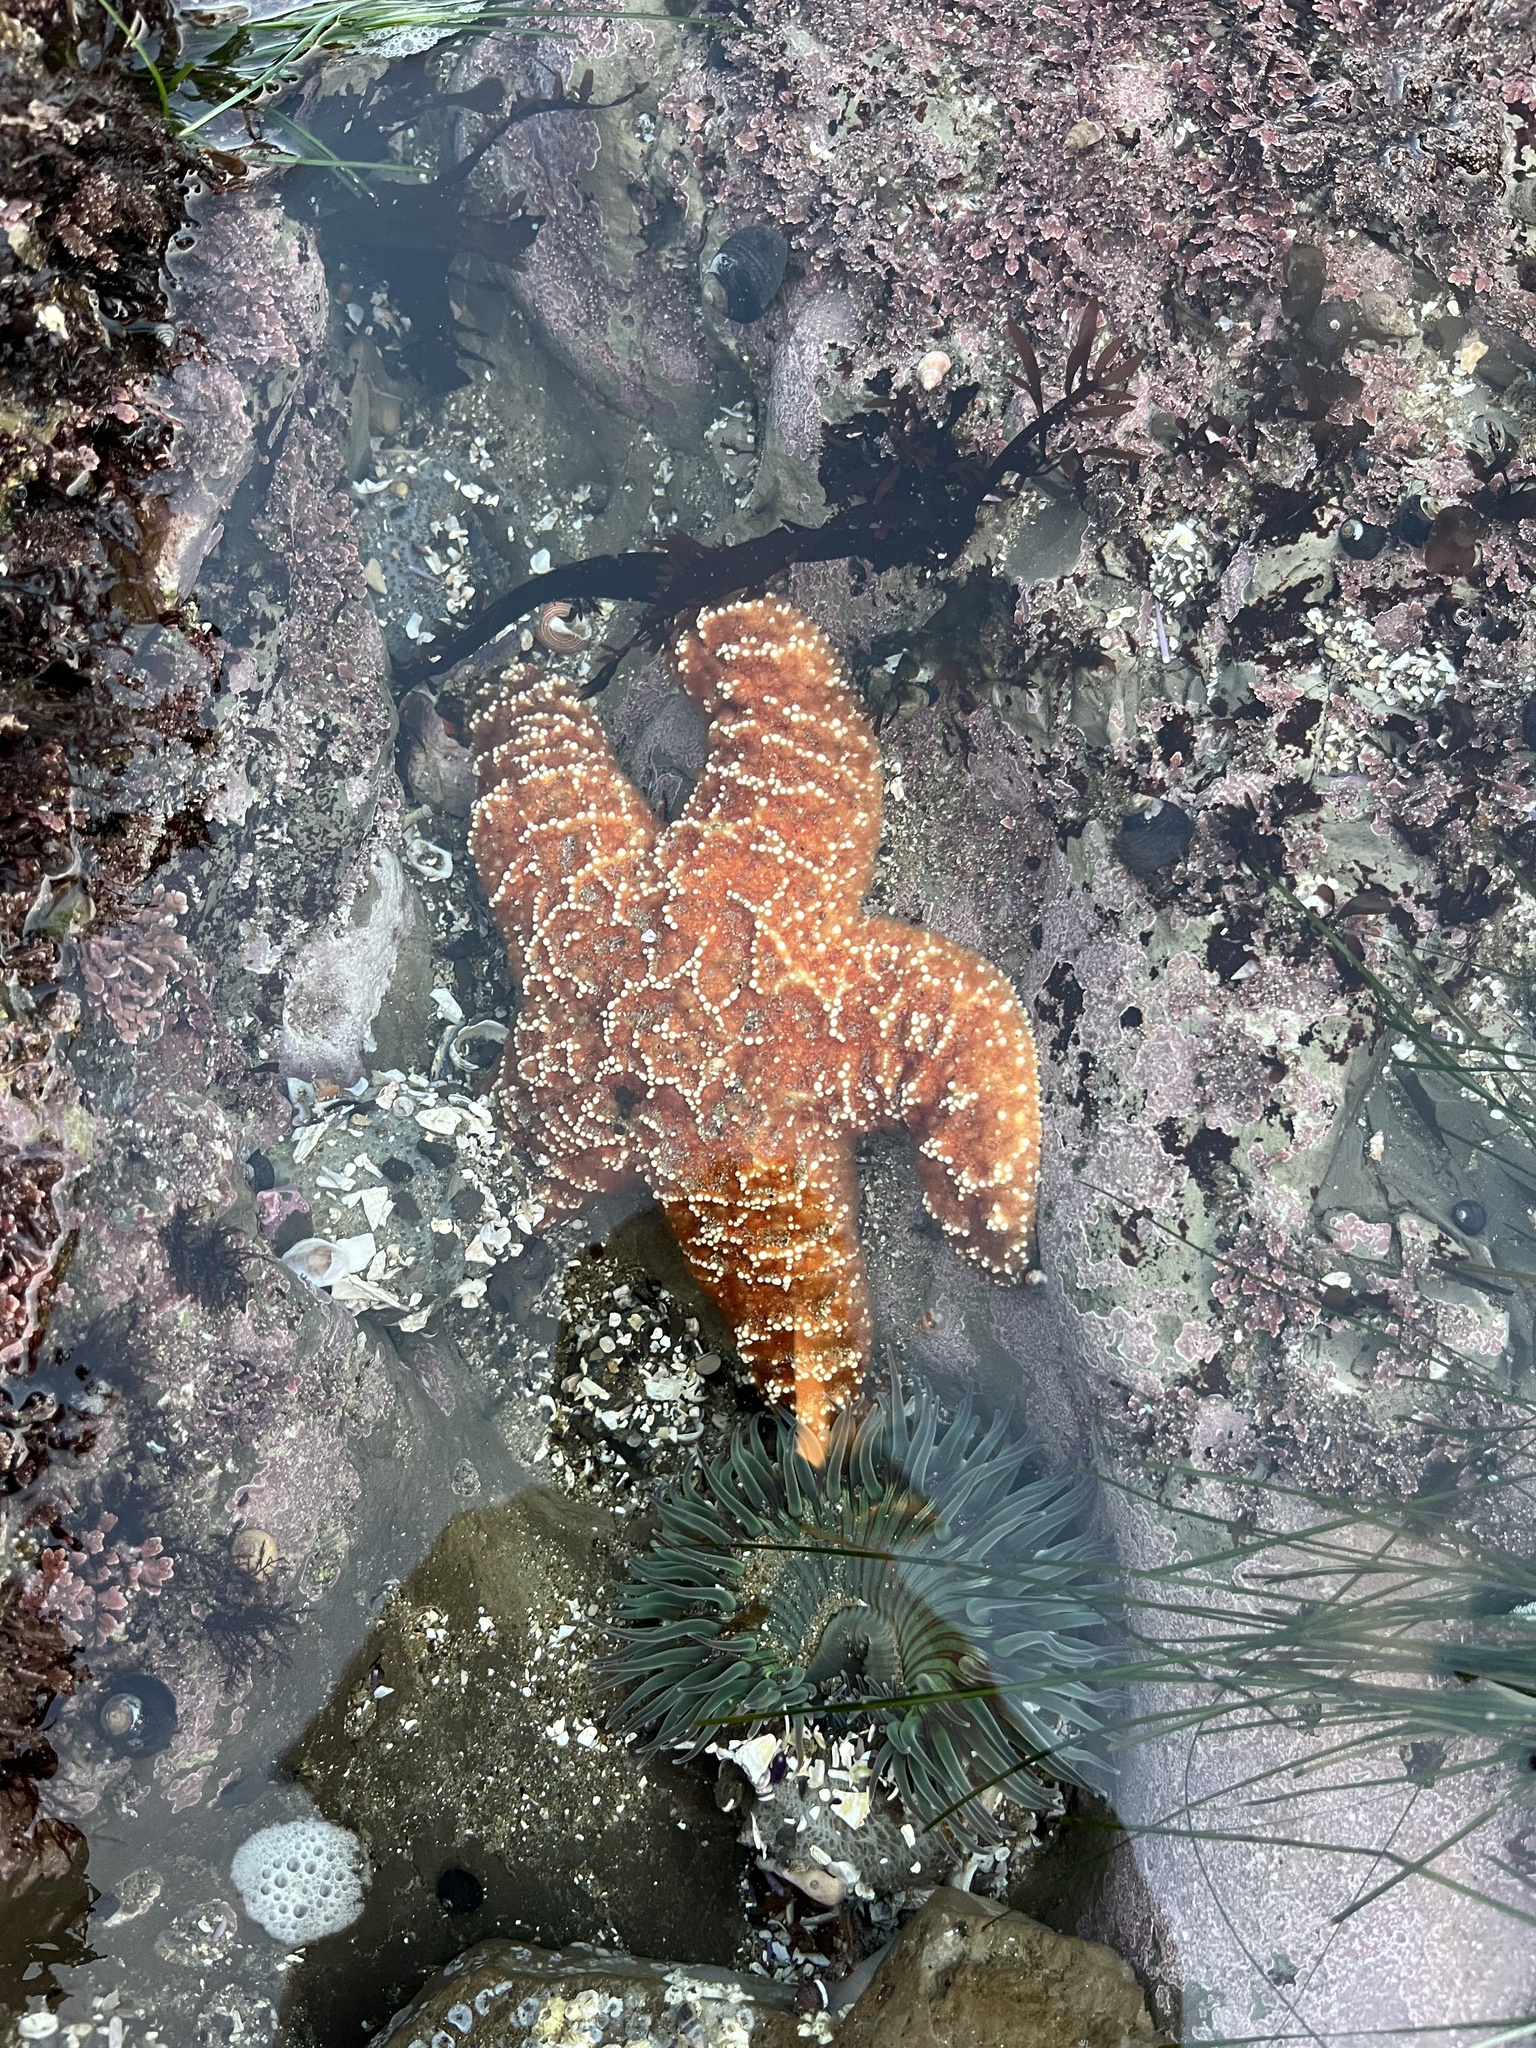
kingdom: Animalia
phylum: Echinodermata
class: Asteroidea
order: Forcipulatida
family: Asteriidae
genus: Pisaster
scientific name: Pisaster ochraceus
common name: Ochre stars
